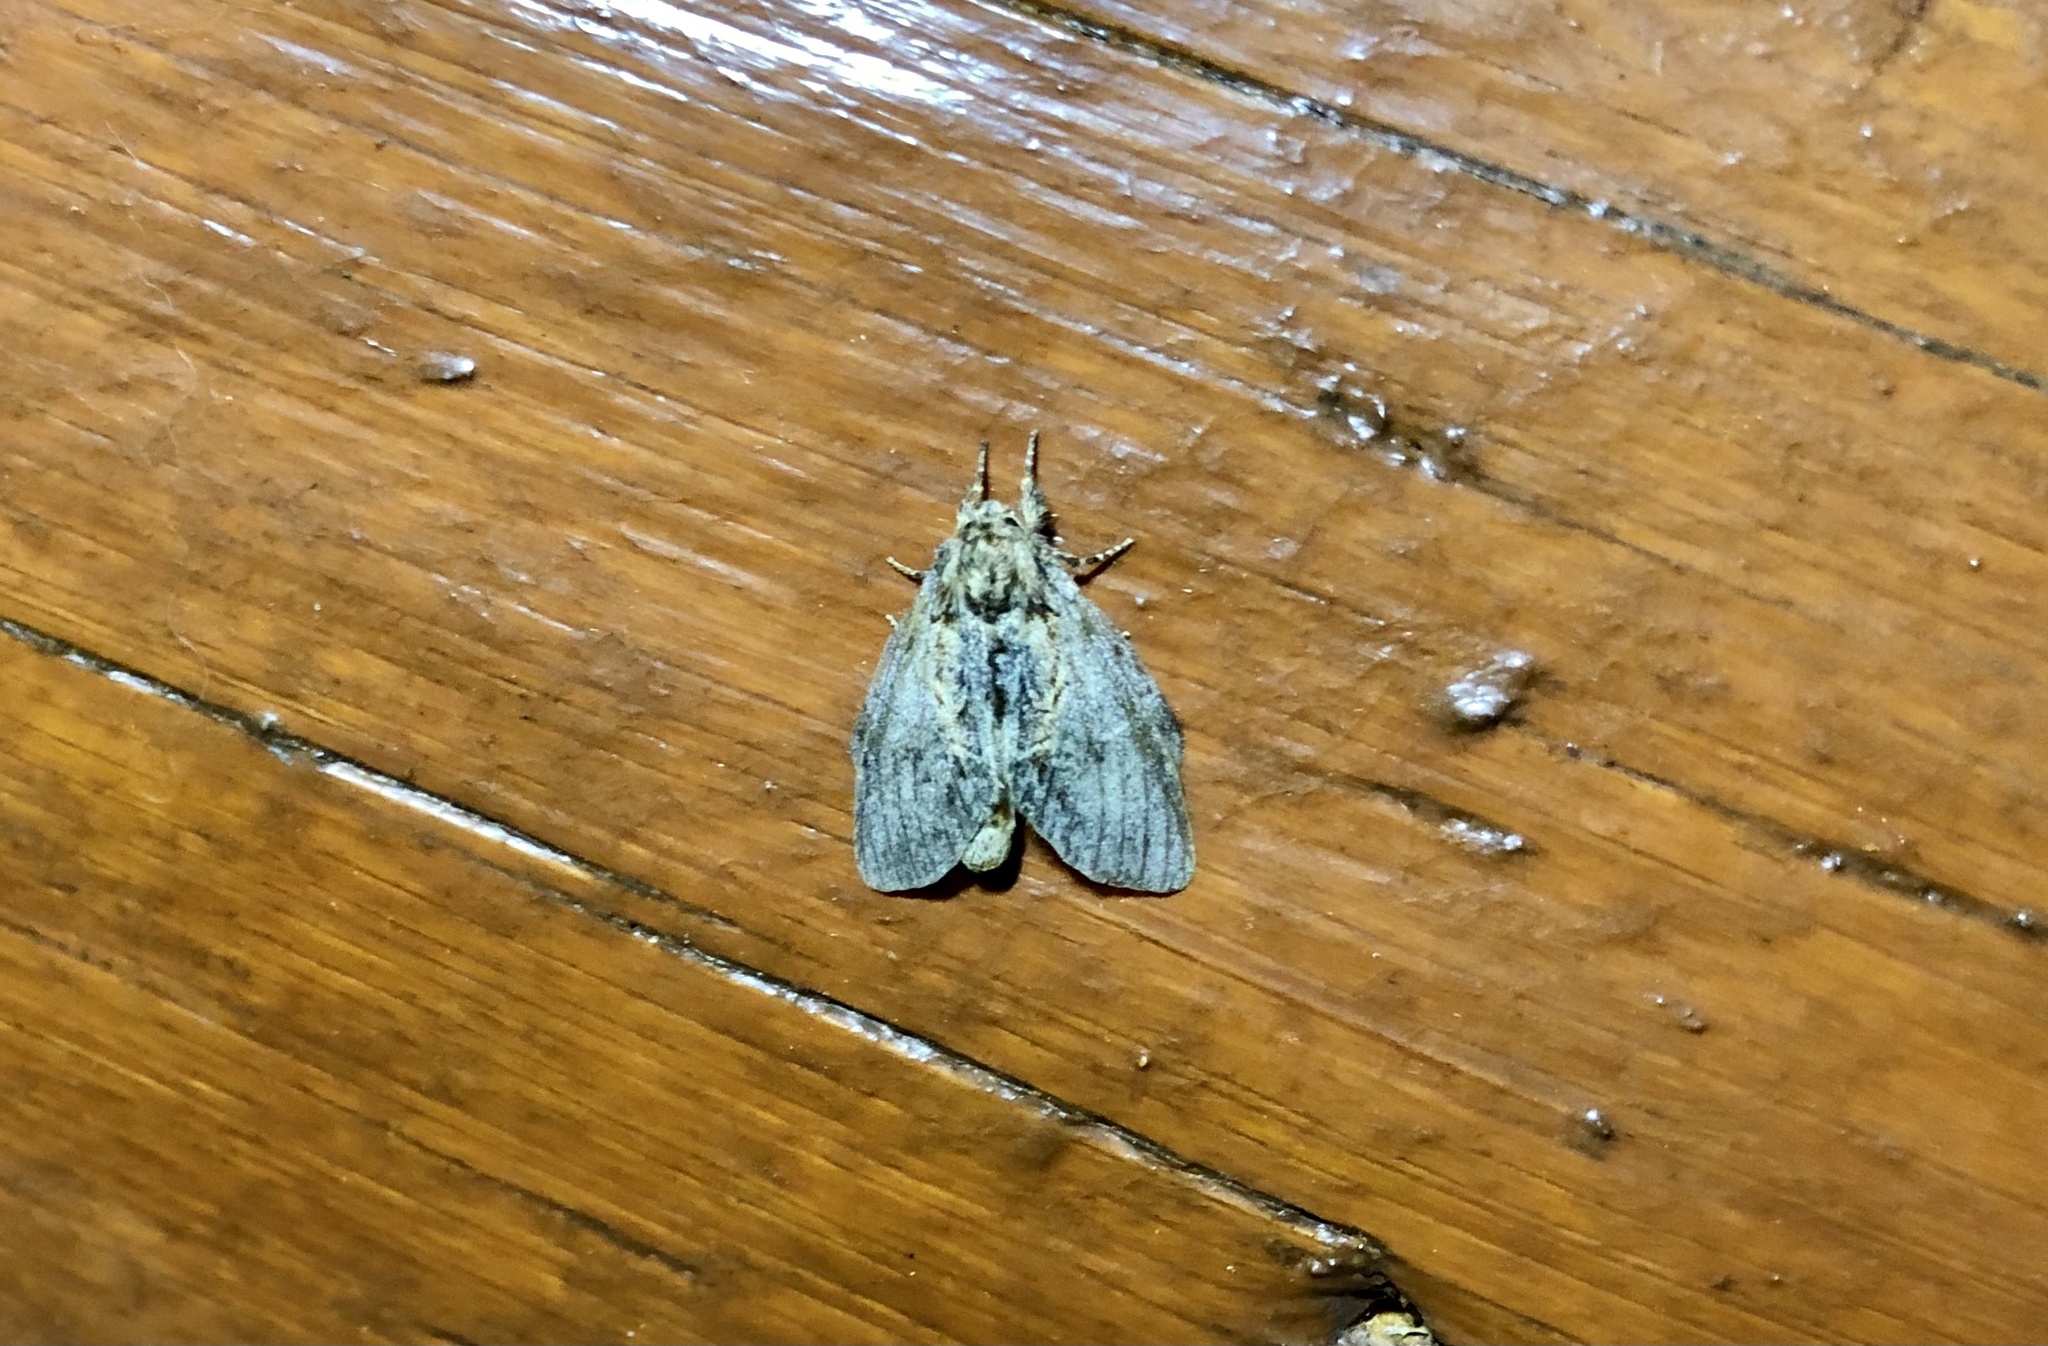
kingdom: Animalia
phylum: Arthropoda
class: Insecta
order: Lepidoptera
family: Notodontidae
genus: Peridea
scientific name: Peridea basitriens
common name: Oval-based prominent
